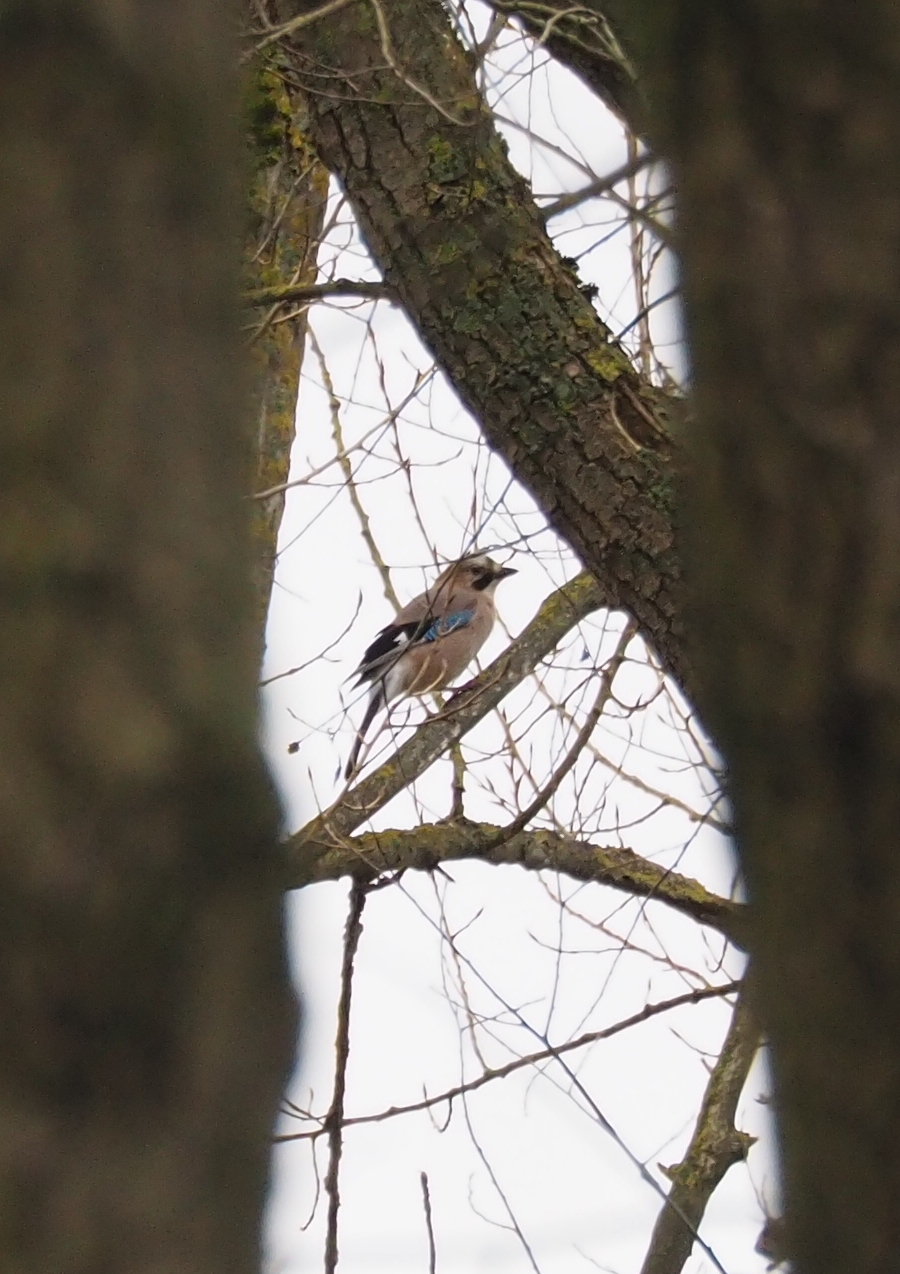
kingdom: Animalia
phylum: Chordata
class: Aves
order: Passeriformes
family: Corvidae
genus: Garrulus
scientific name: Garrulus glandarius
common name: Eurasian jay
